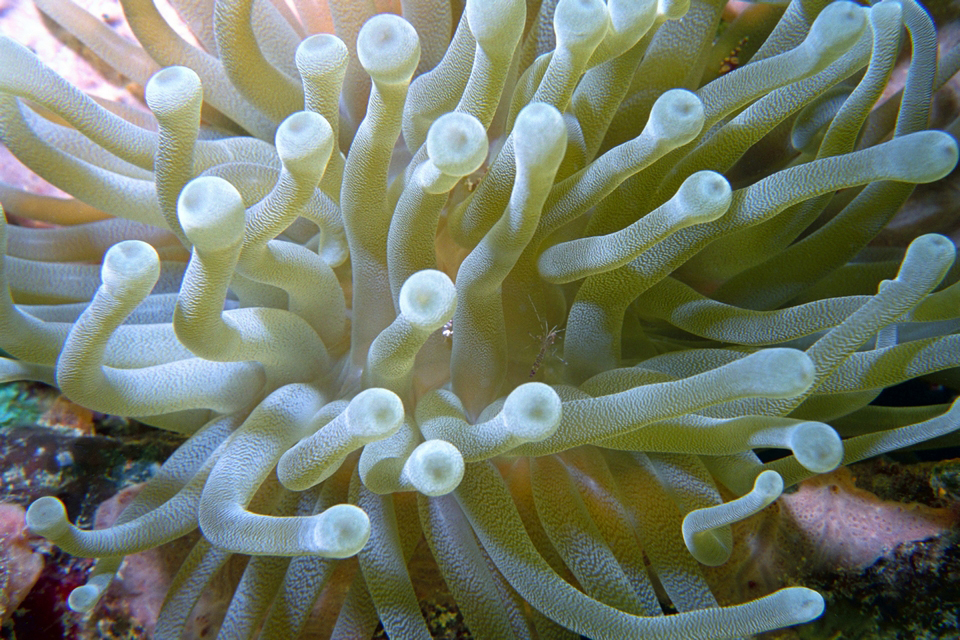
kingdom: Animalia
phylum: Cnidaria
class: Anthozoa
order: Actiniaria
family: Actiniidae
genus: Condylactis
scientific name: Condylactis gigantea
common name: Giant caribbean anemone
